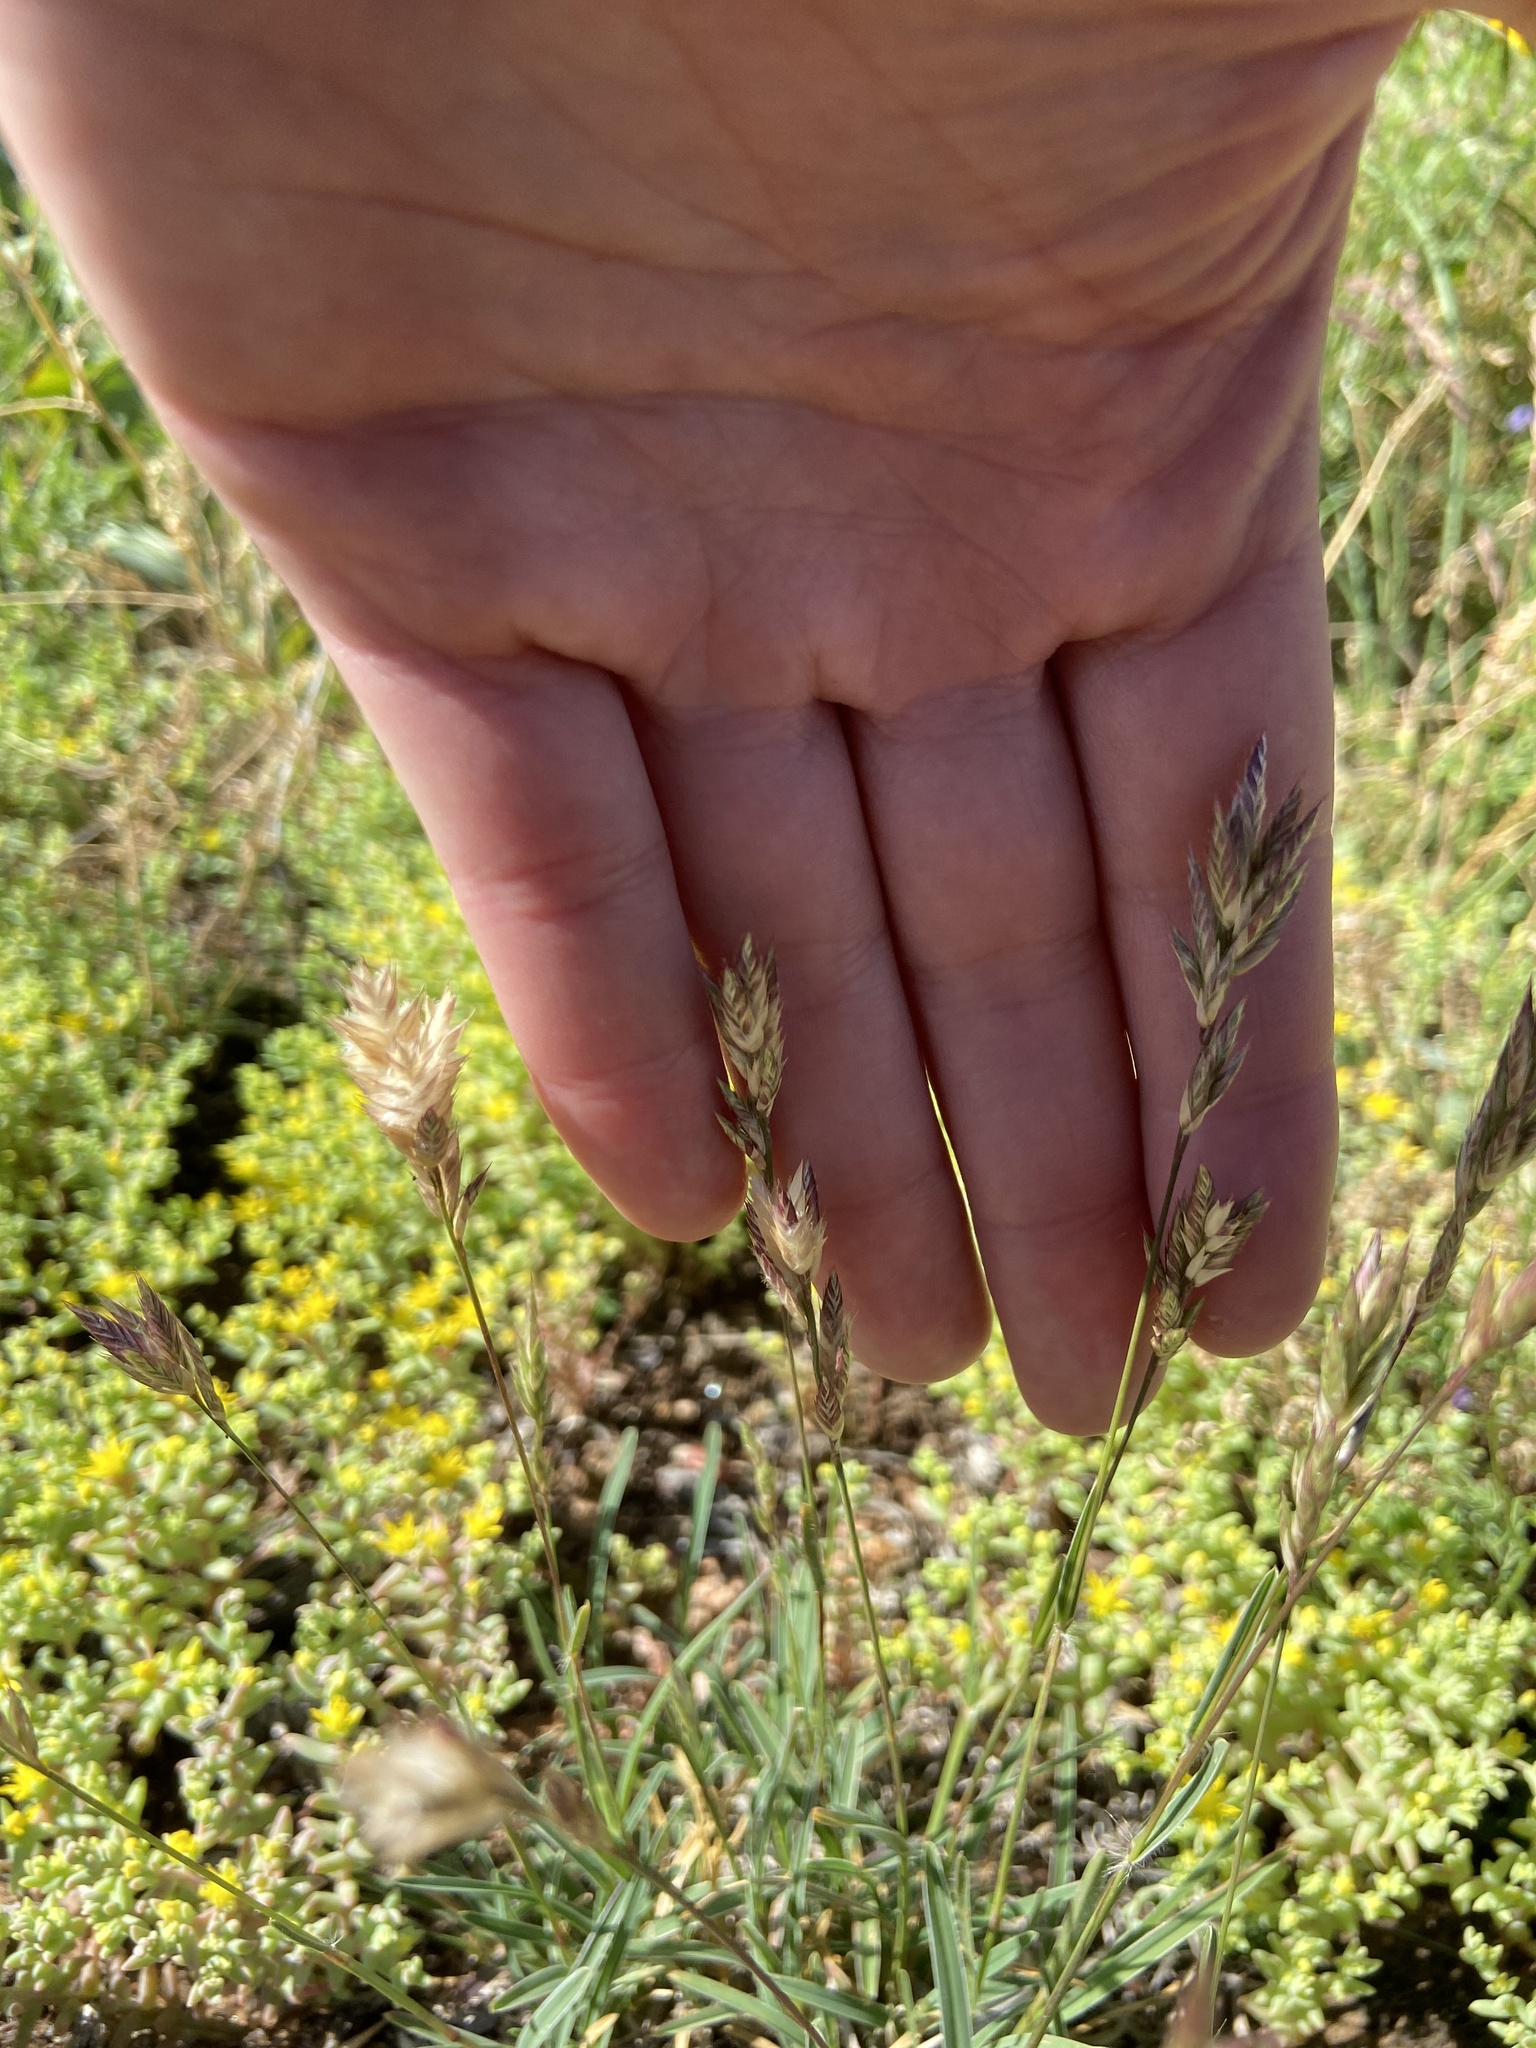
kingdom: Plantae
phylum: Tracheophyta
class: Liliopsida
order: Poales
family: Poaceae
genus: Erioneuron
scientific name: Erioneuron pilosum
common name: Hairy woolly grass
